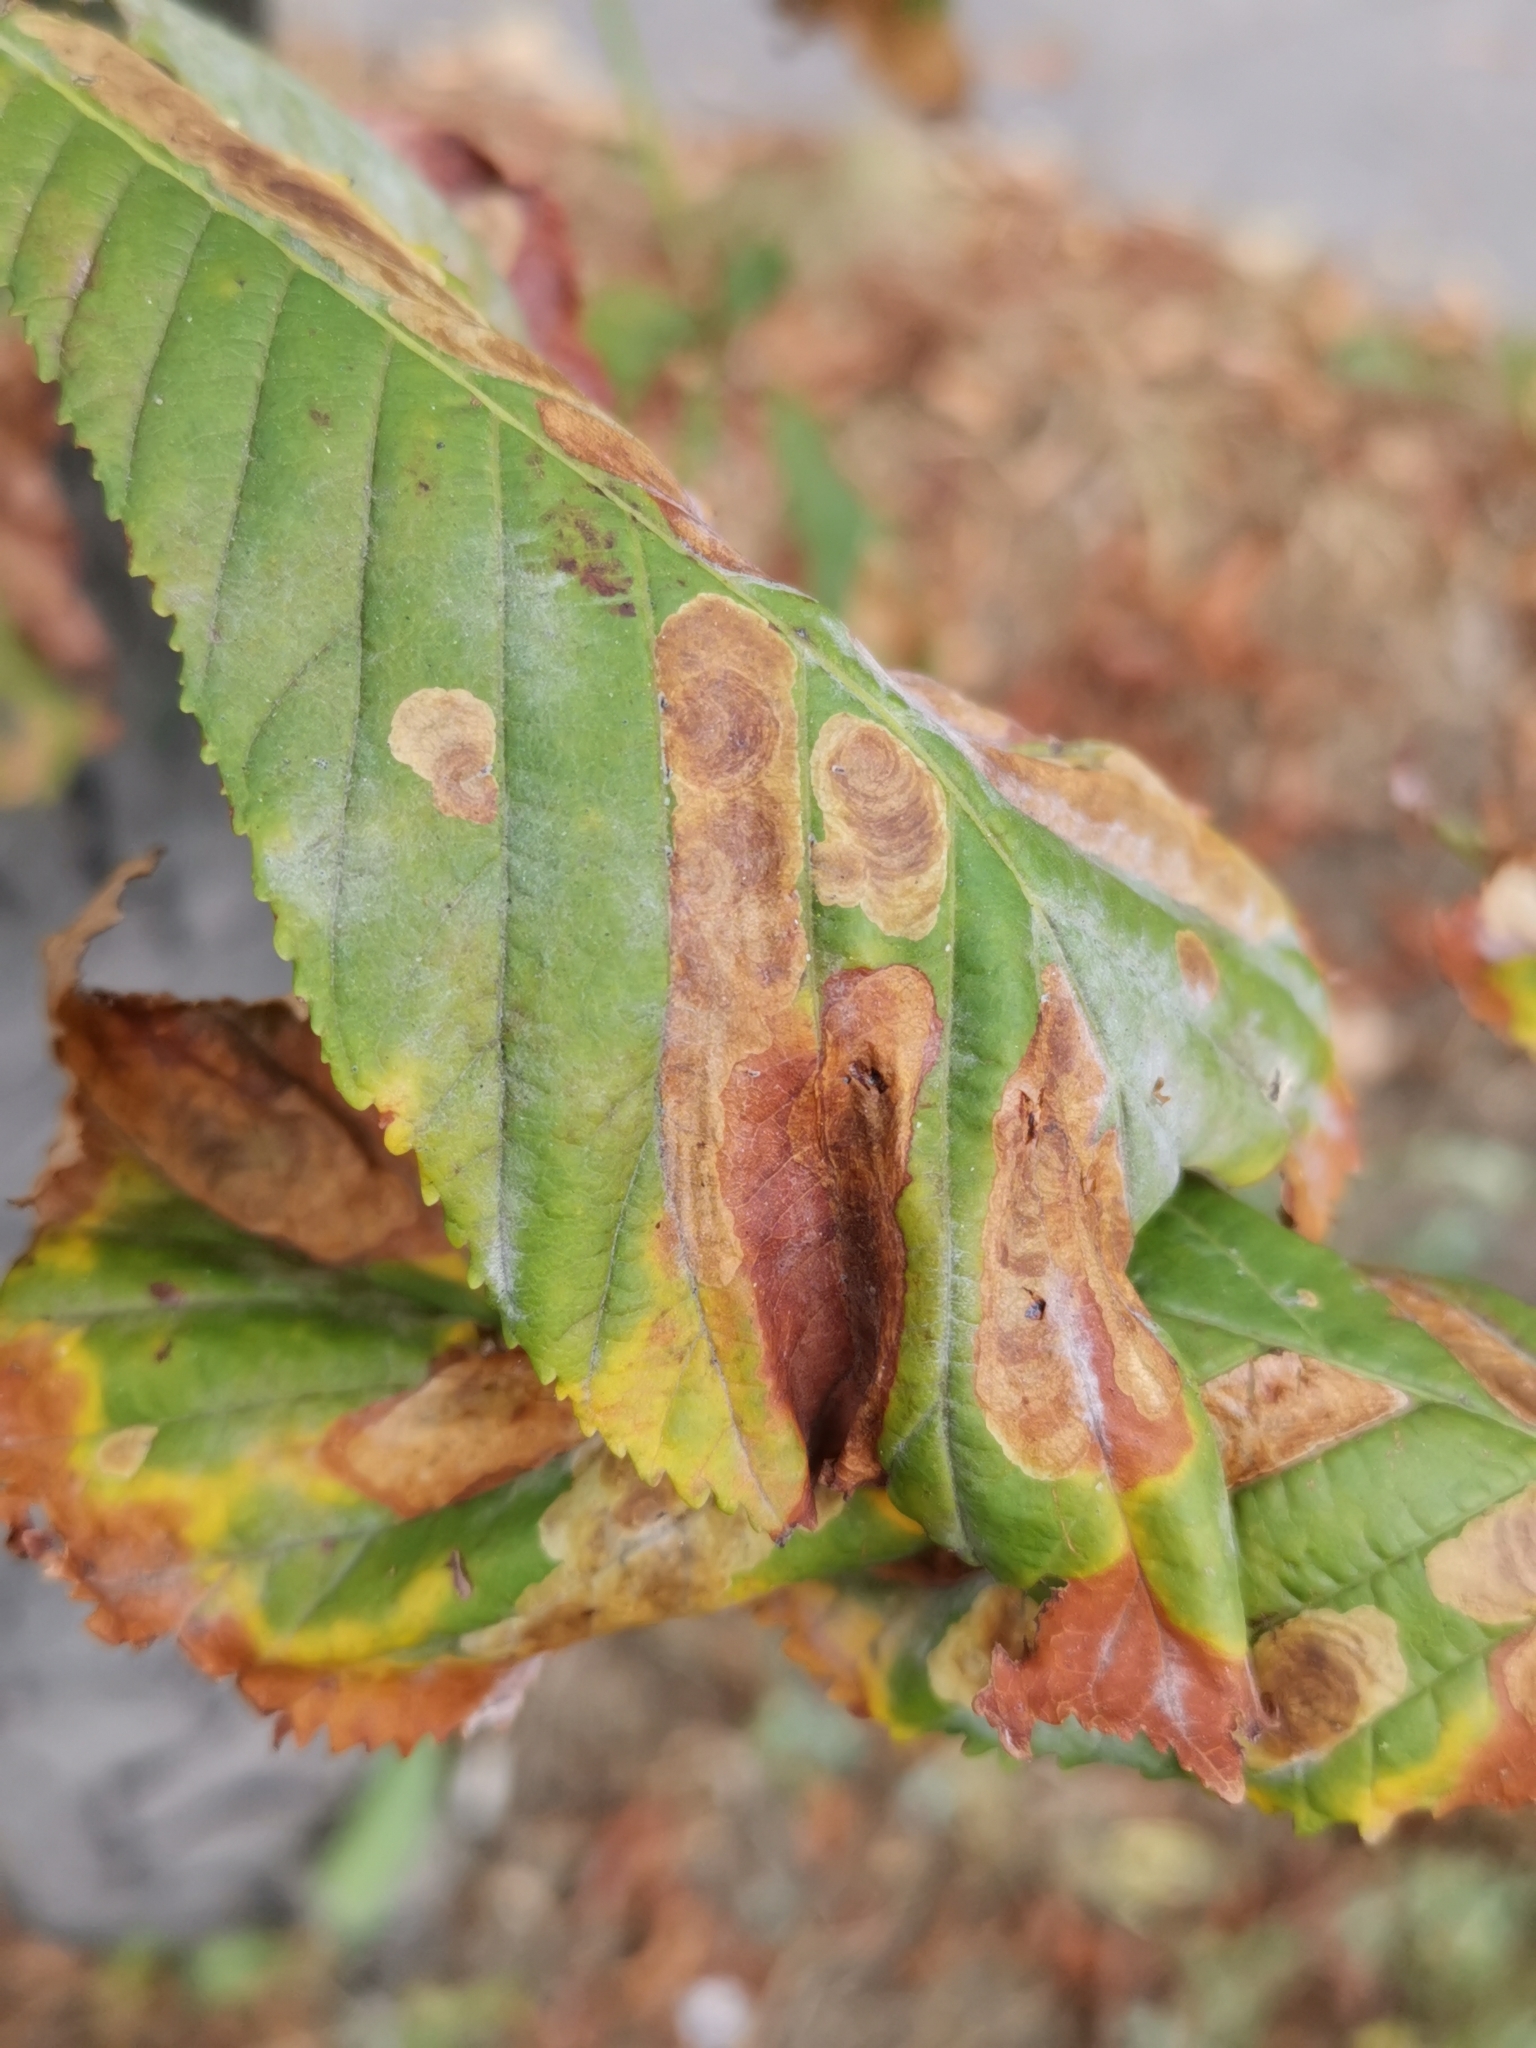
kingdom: Animalia
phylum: Arthropoda
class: Insecta
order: Lepidoptera
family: Gracillariidae
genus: Cameraria
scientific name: Cameraria ohridella
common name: Horse-chestnut leaf-miner
